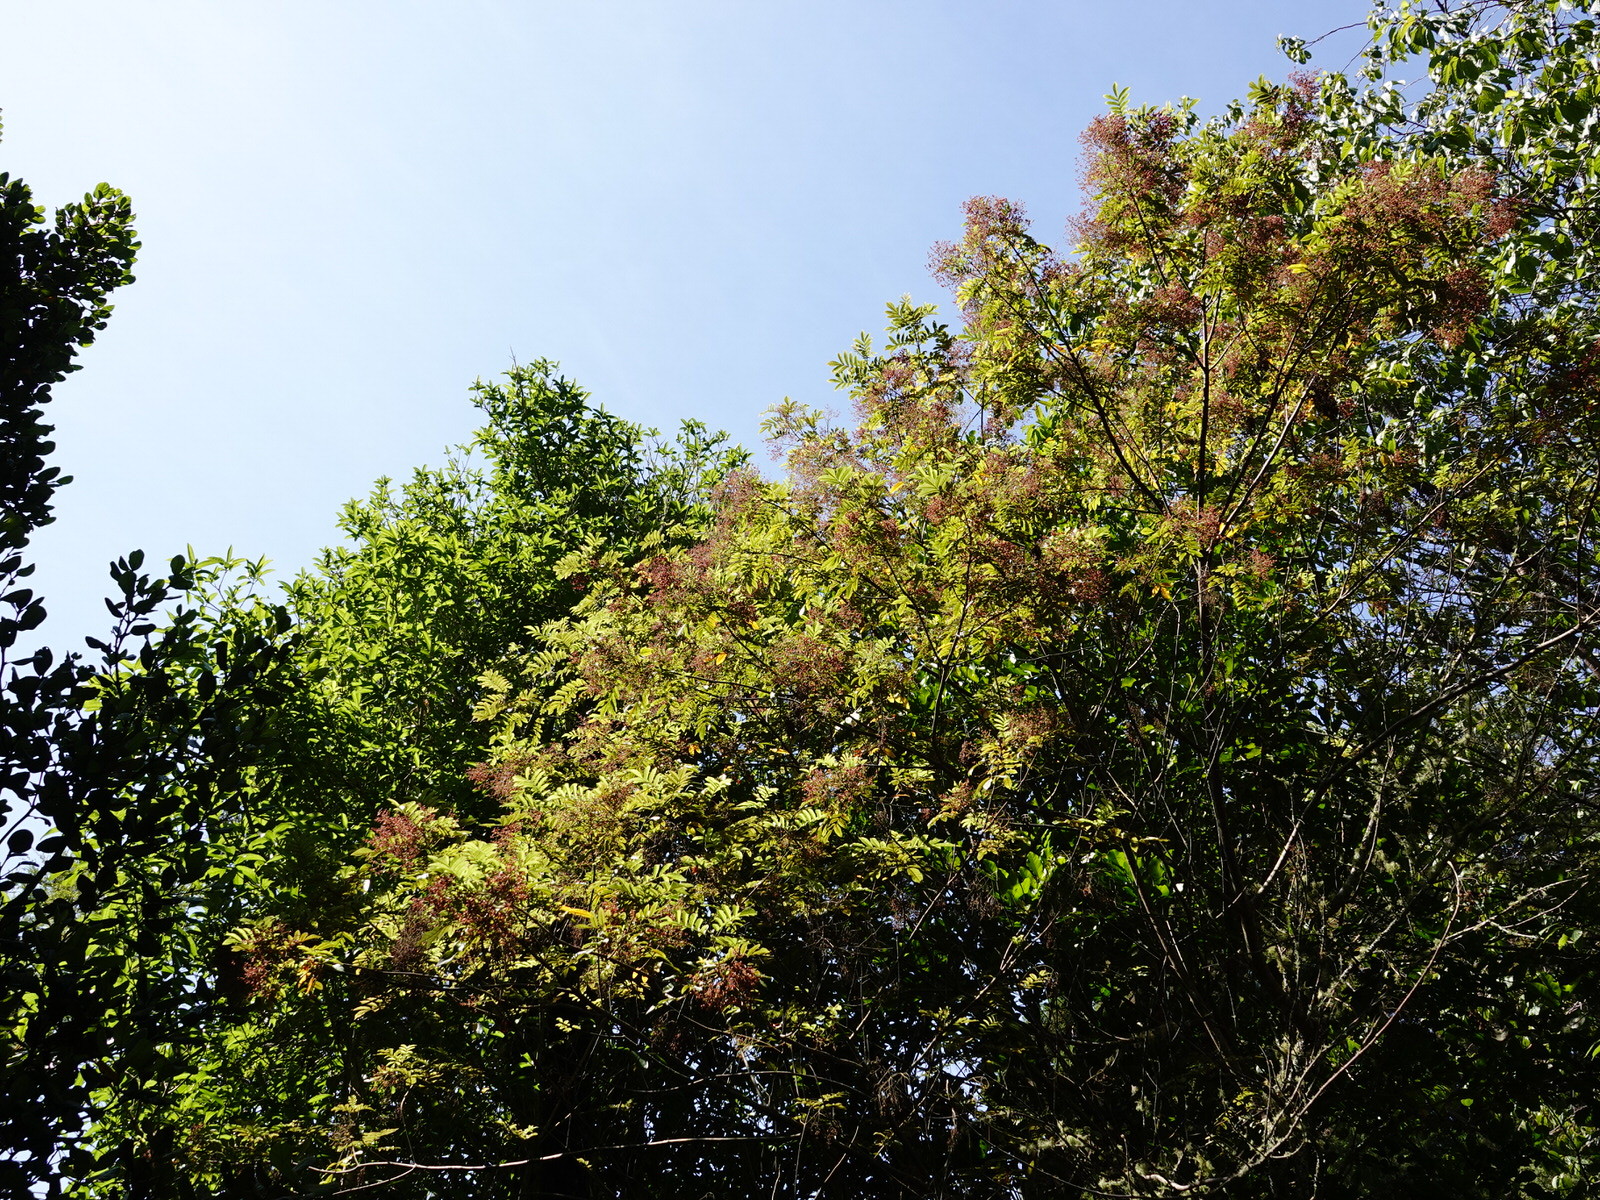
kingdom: Plantae
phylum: Tracheophyta
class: Magnoliopsida
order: Oxalidales
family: Cunoniaceae
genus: Pterophylla
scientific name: Pterophylla sylvicola
